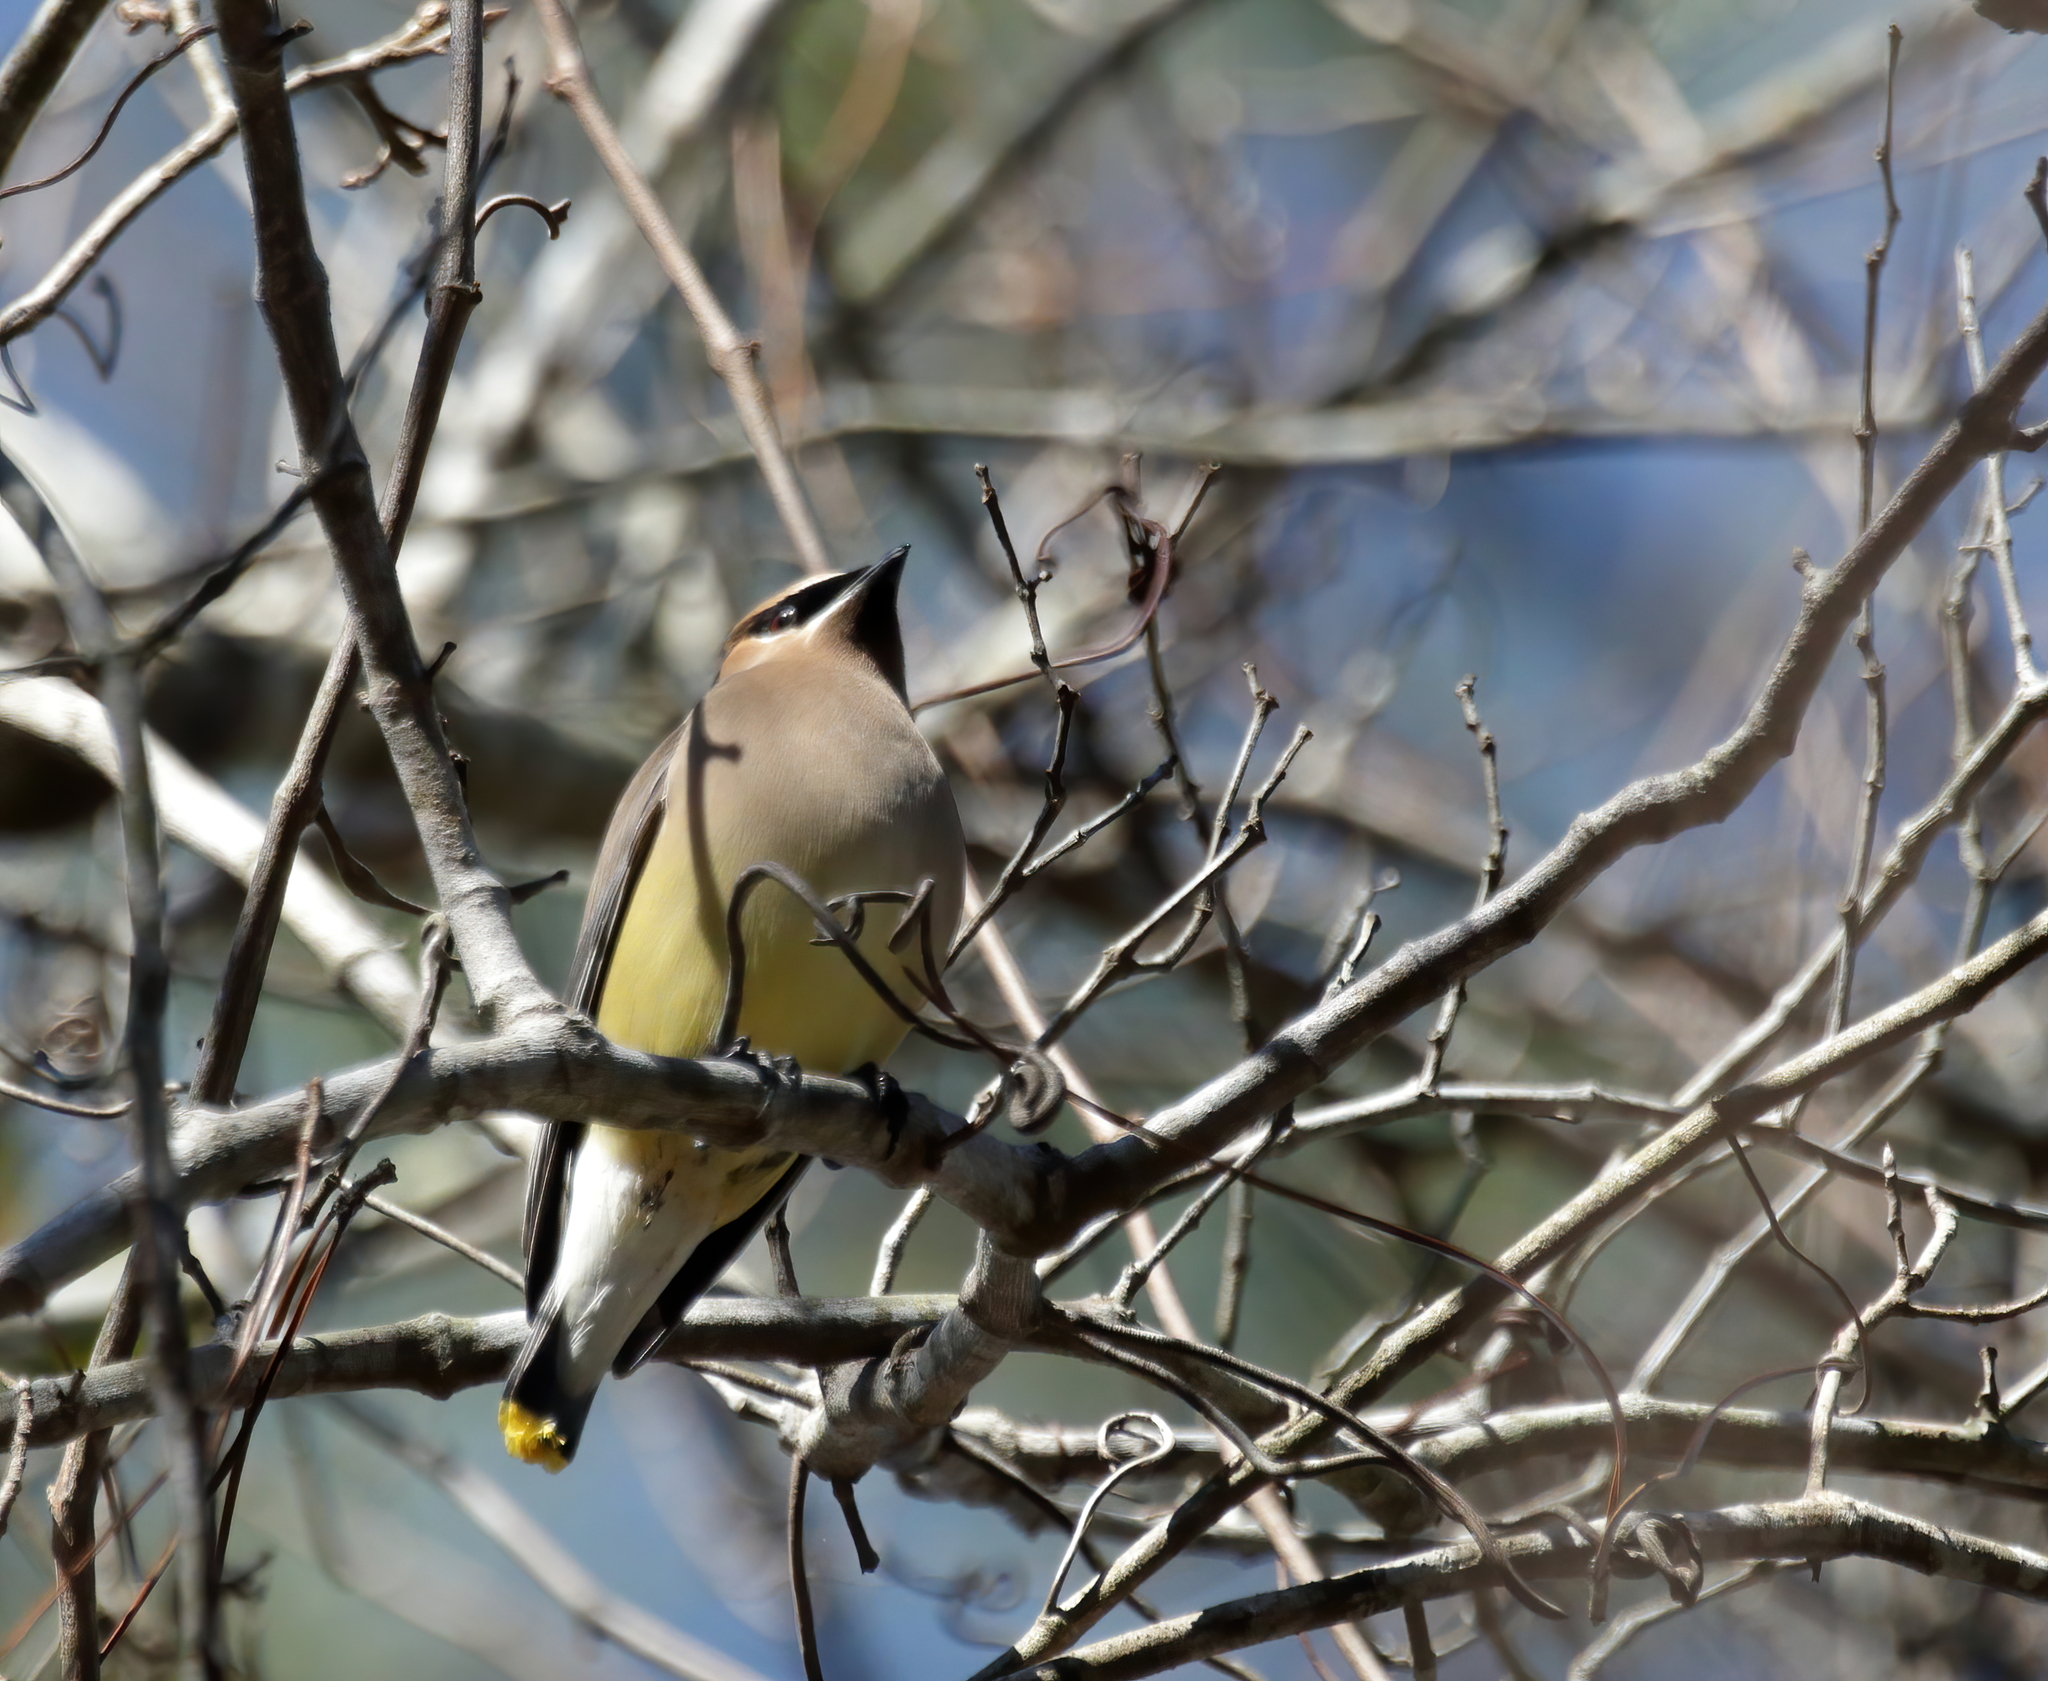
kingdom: Animalia
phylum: Chordata
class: Aves
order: Passeriformes
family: Bombycillidae
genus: Bombycilla
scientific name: Bombycilla cedrorum
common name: Cedar waxwing
